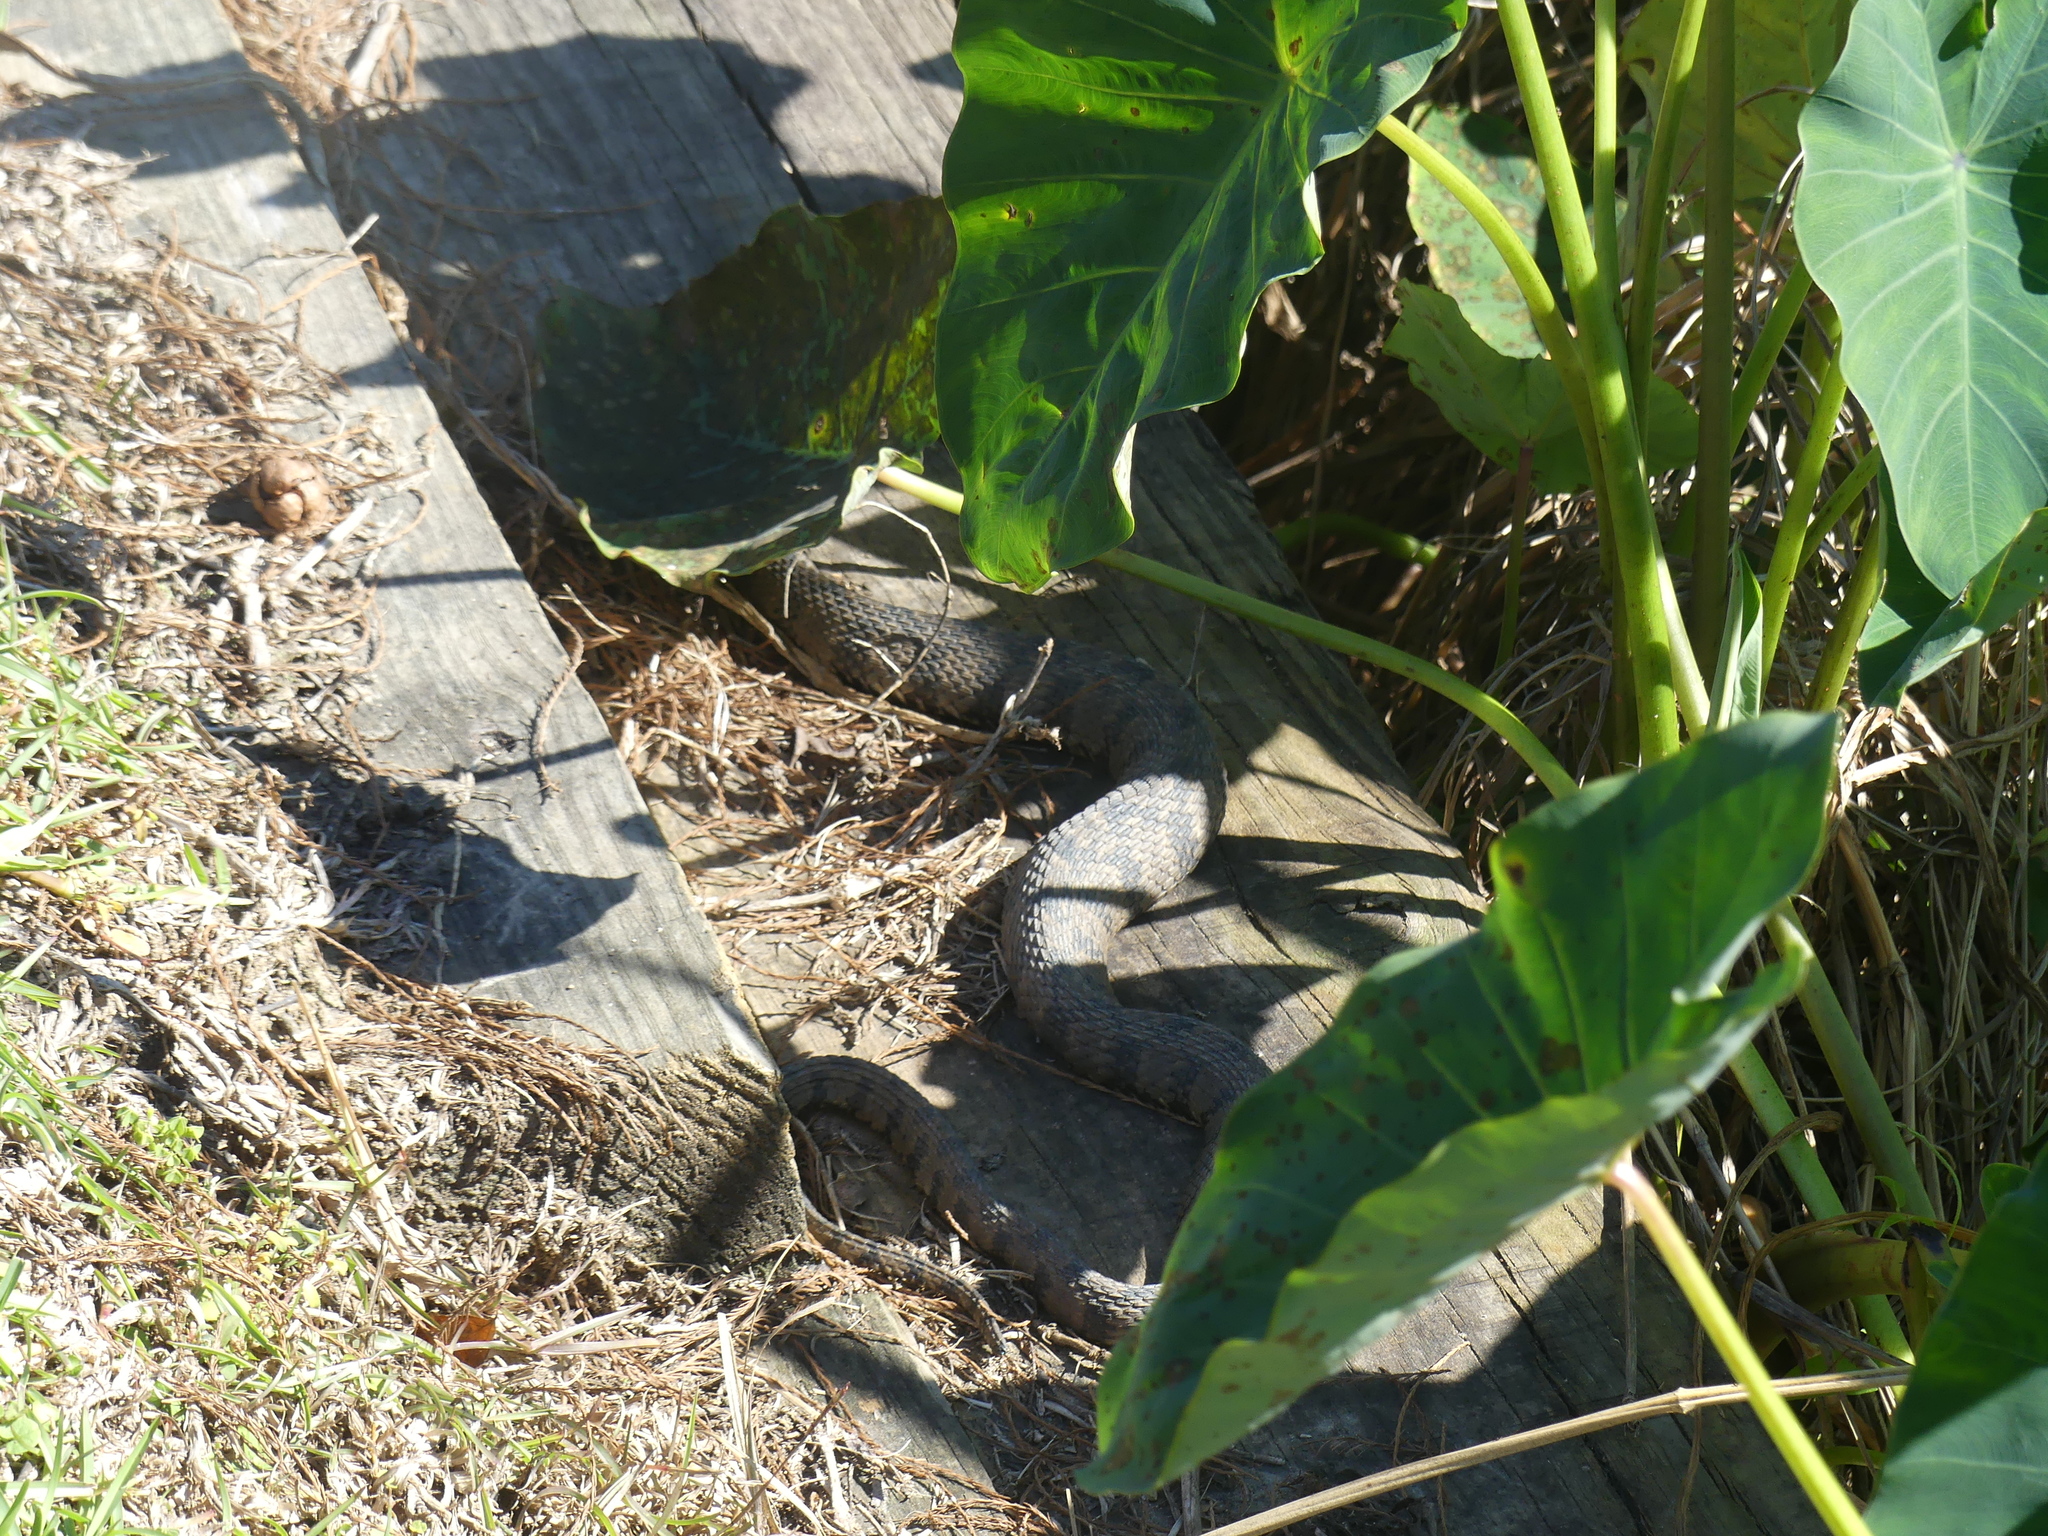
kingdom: Animalia
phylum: Chordata
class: Squamata
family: Colubridae
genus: Nerodia
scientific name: Nerodia rhombifer
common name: Diamondback water snake
